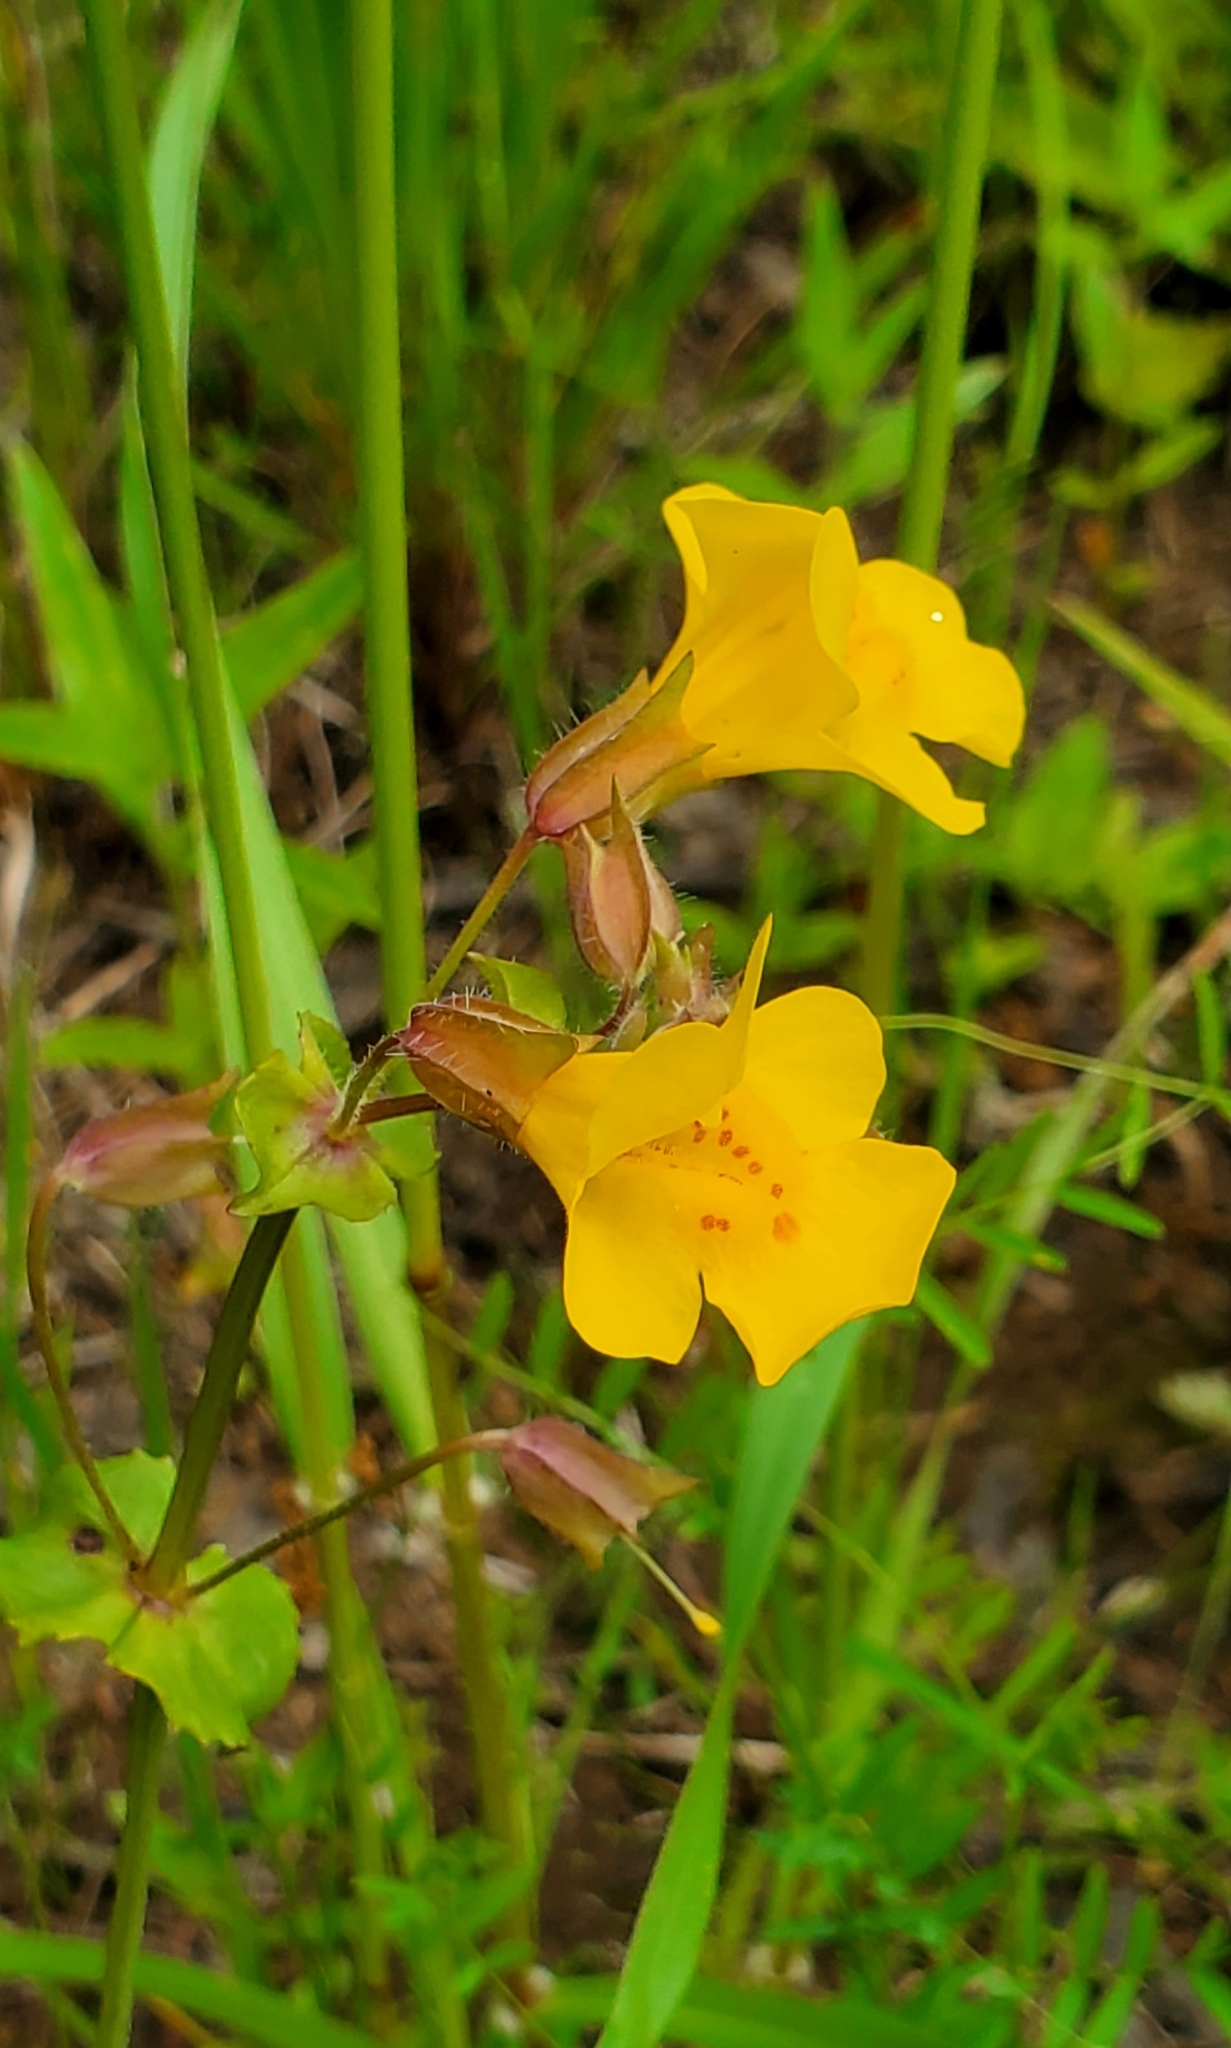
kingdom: Plantae
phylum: Tracheophyta
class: Magnoliopsida
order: Lamiales
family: Phrymaceae
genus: Erythranthe
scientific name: Erythranthe guttata
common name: Monkeyflower
